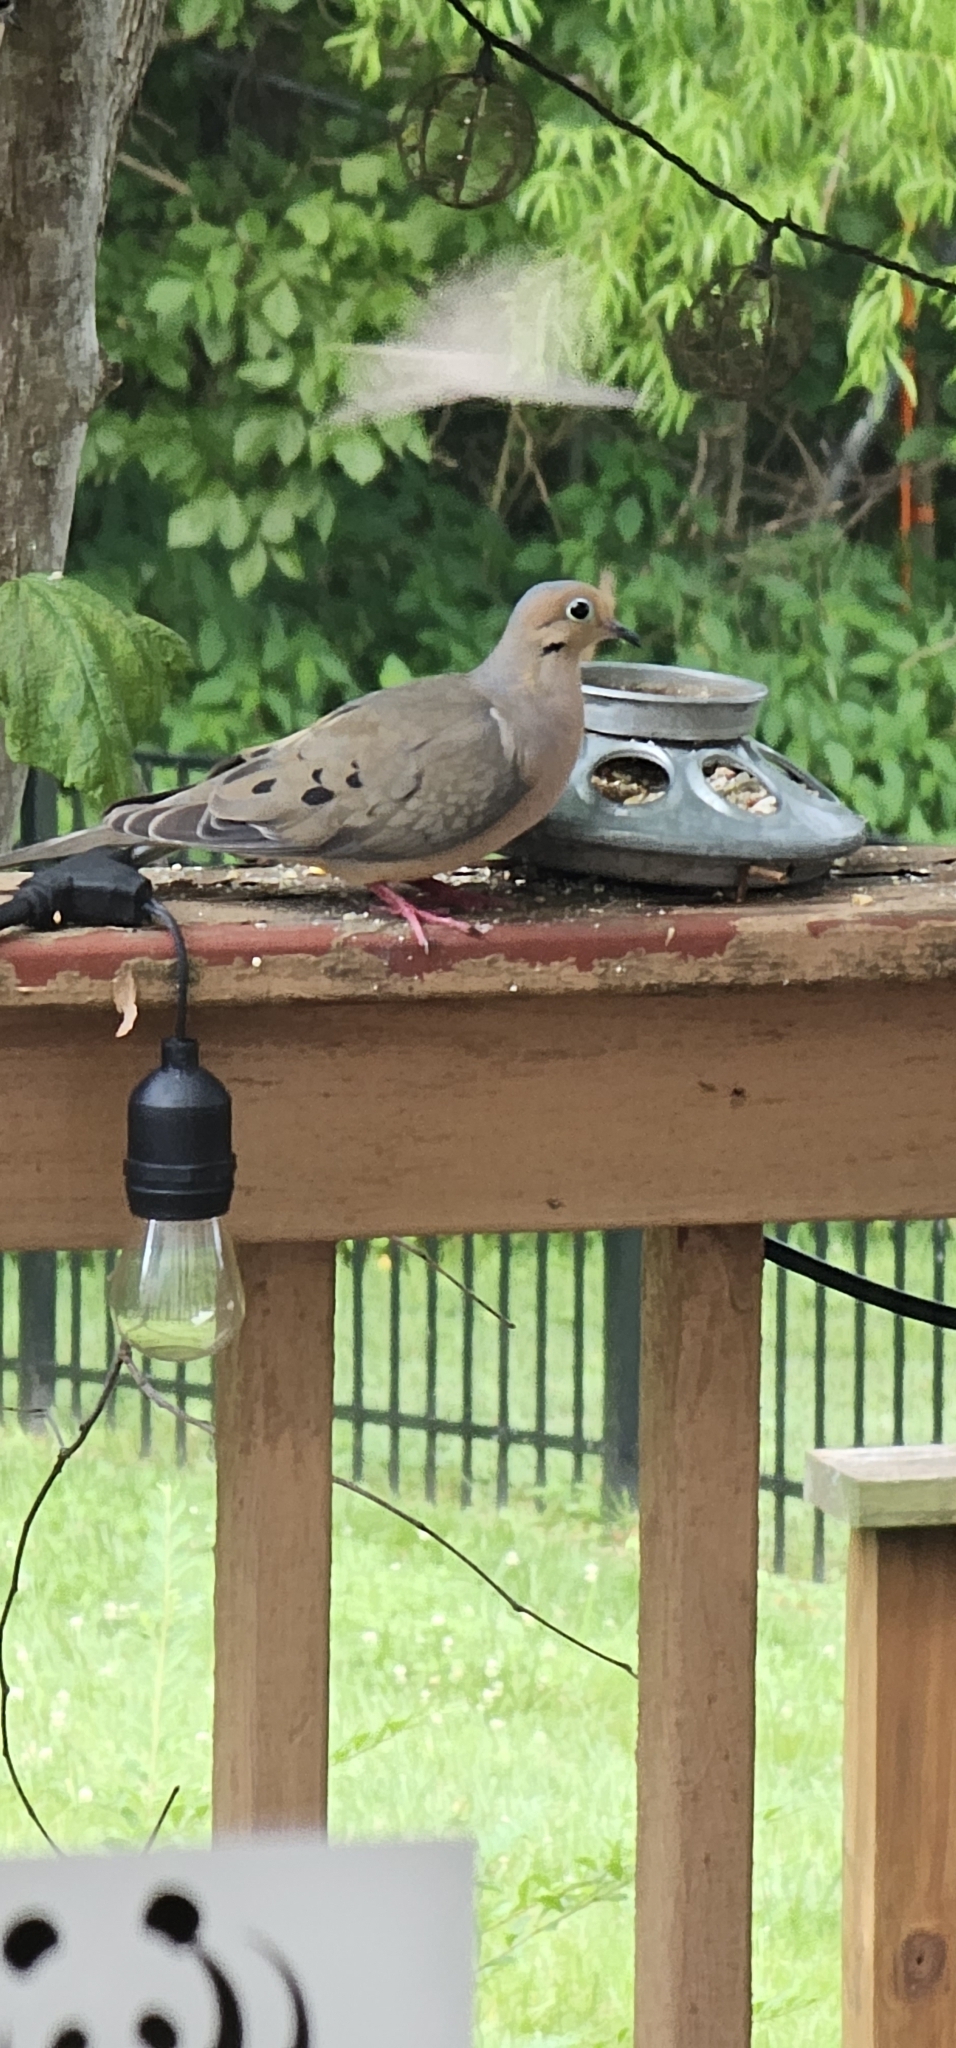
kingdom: Animalia
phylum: Chordata
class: Aves
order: Columbiformes
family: Columbidae
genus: Zenaida
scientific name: Zenaida macroura
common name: Mourning dove
